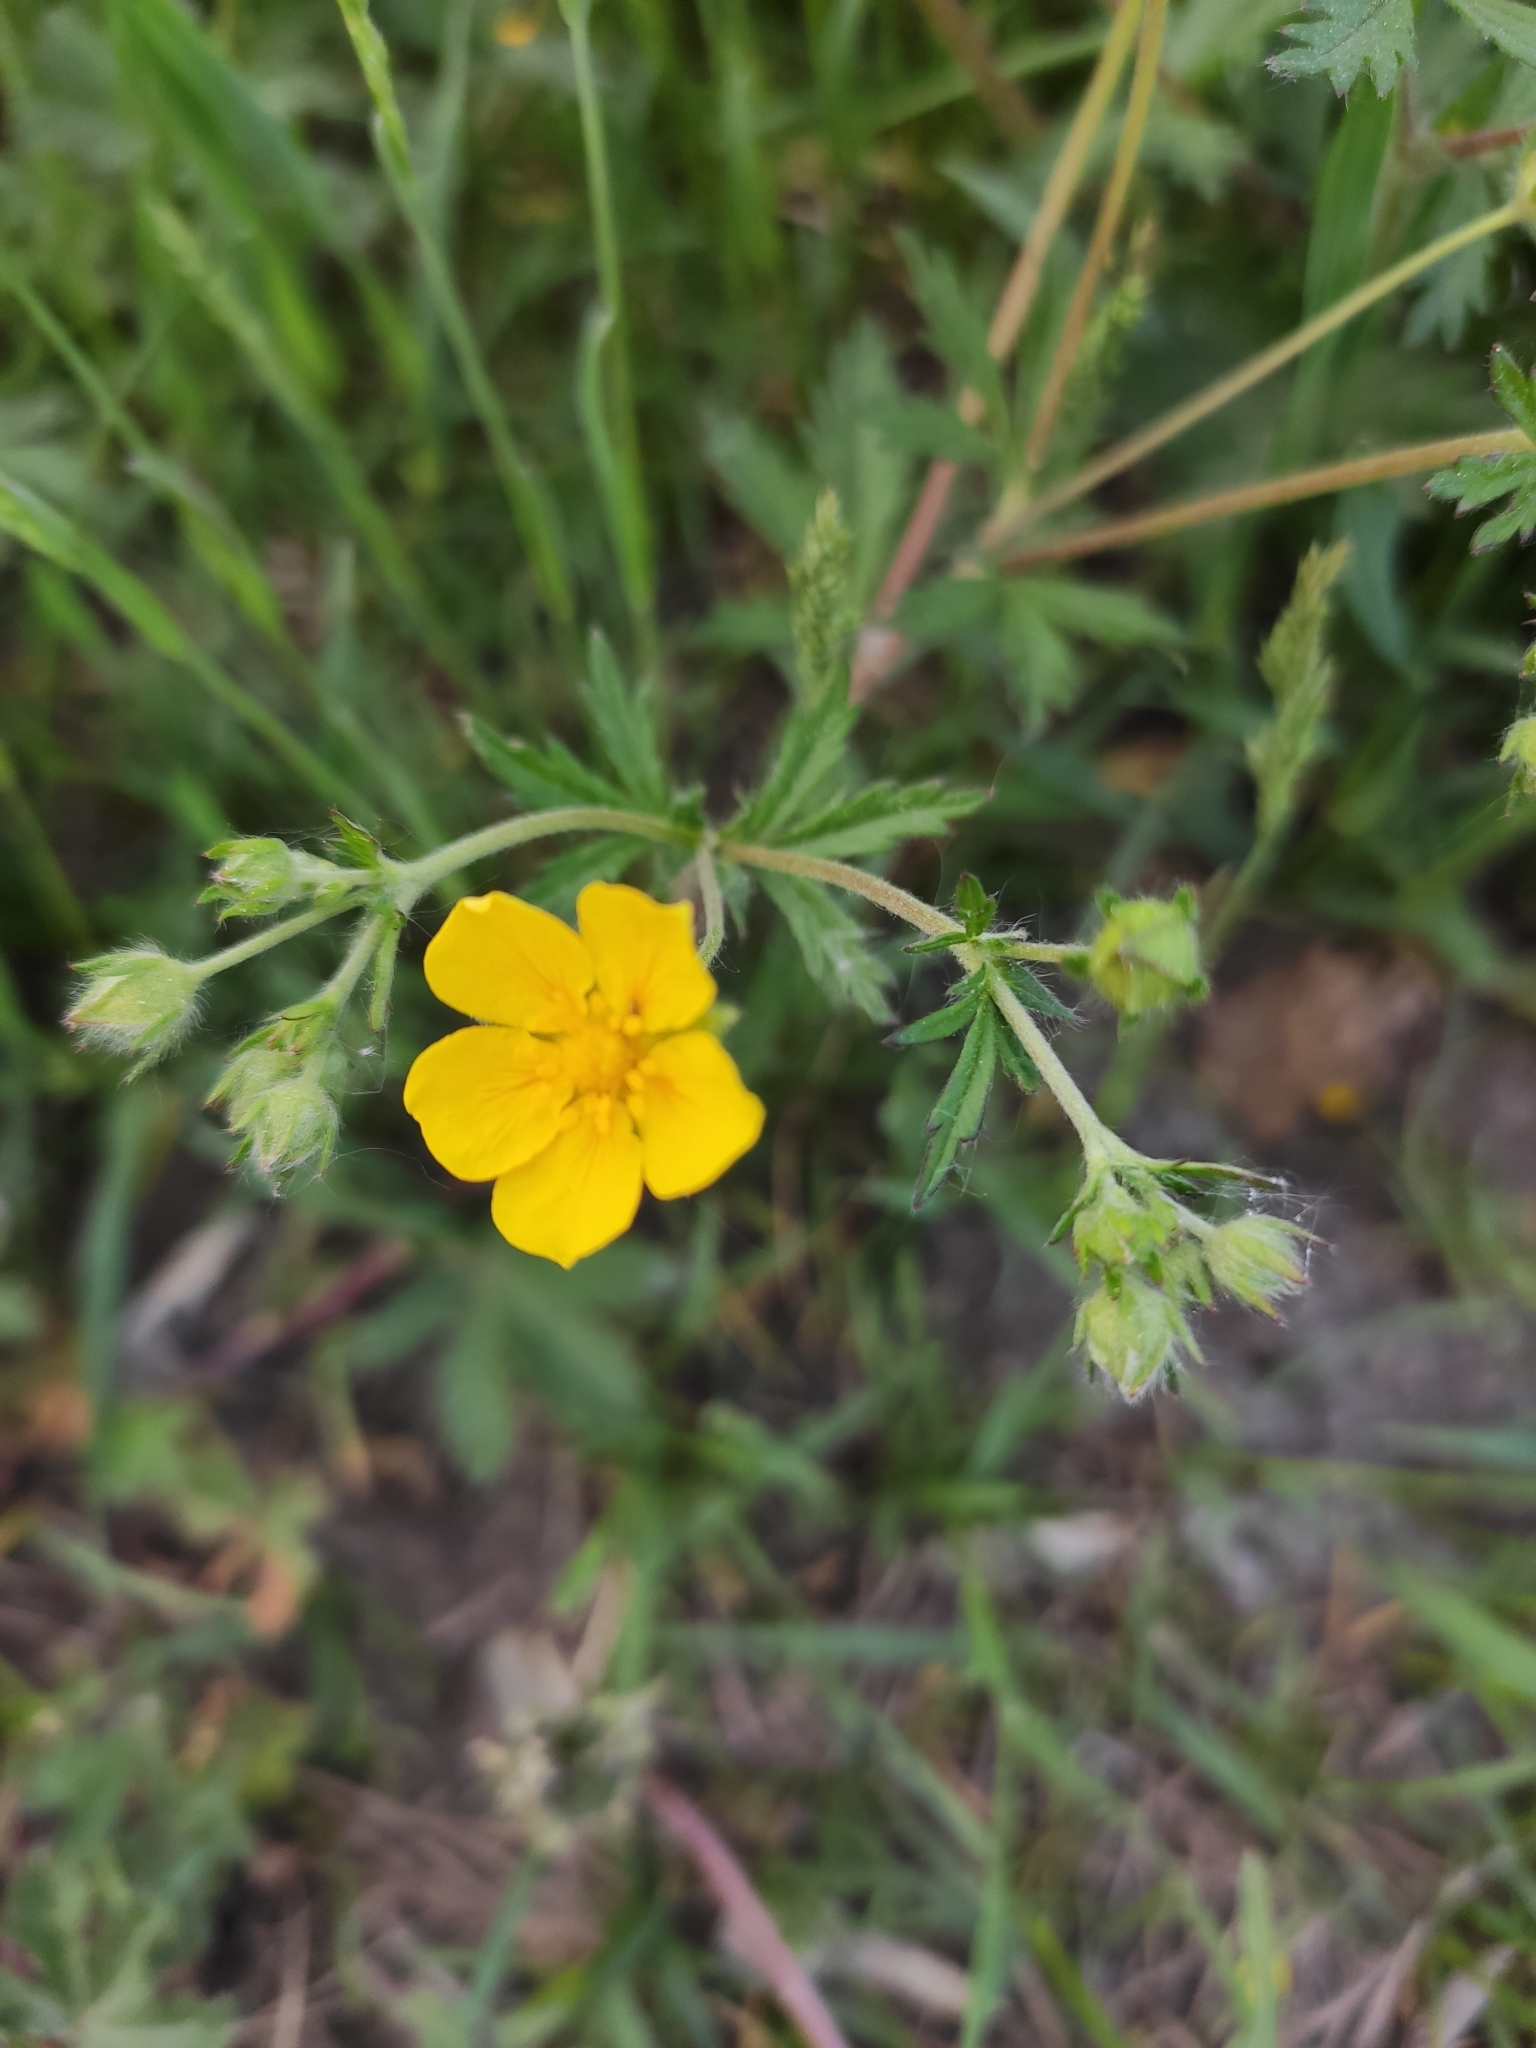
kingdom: Plantae
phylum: Tracheophyta
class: Magnoliopsida
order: Rosales
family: Rosaceae
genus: Potentilla
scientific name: Potentilla chrysantha
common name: Thuringian cinquefoil
